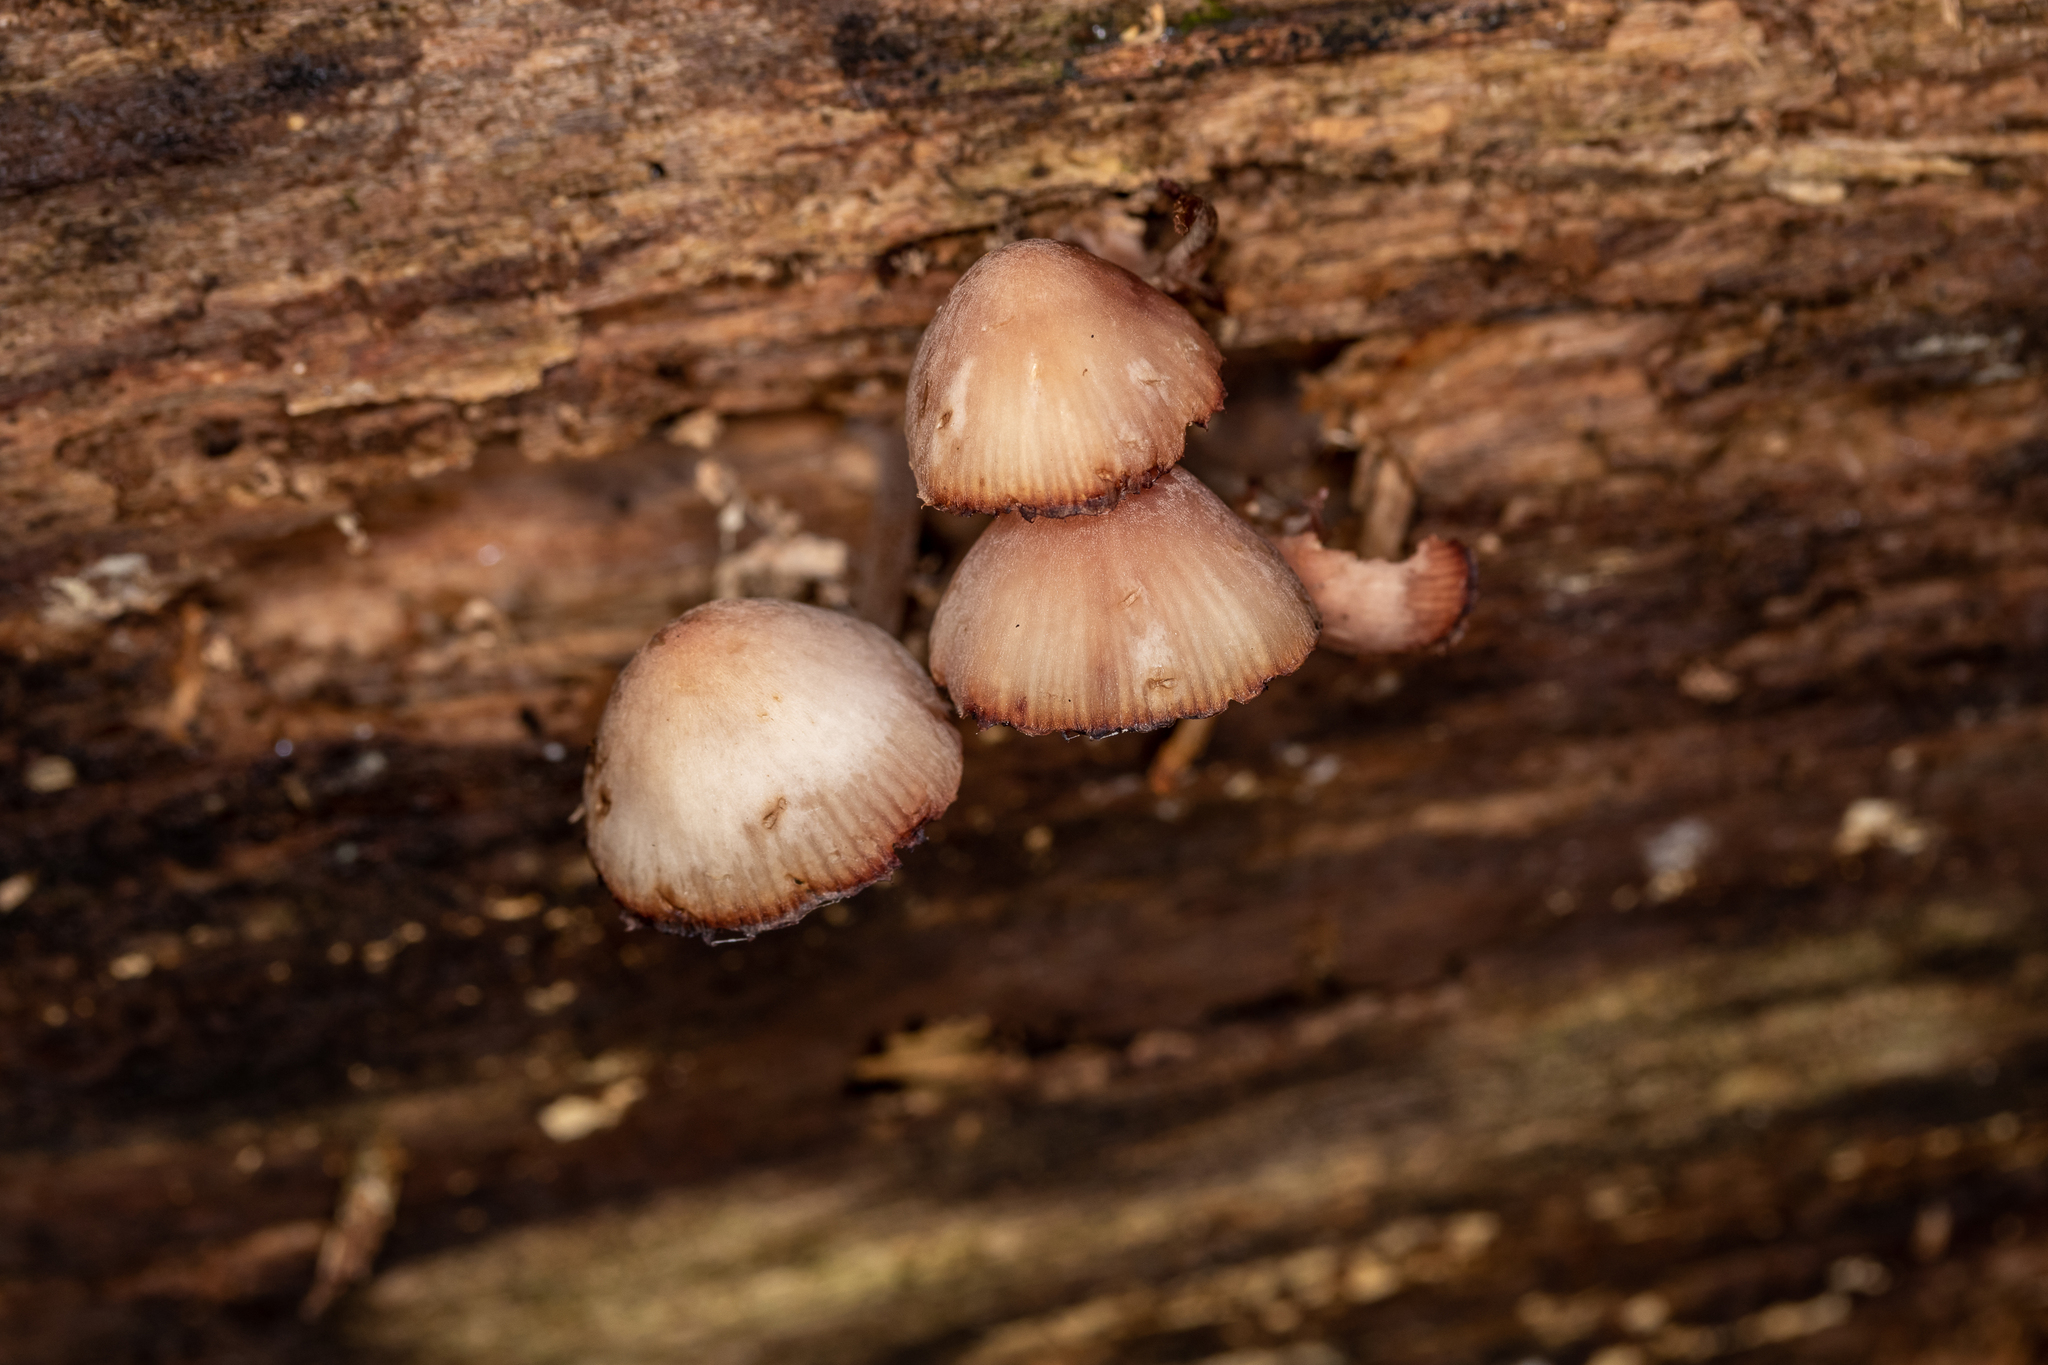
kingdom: Fungi
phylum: Basidiomycota
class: Agaricomycetes
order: Agaricales
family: Mycenaceae
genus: Mycena
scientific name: Mycena haematopus
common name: Burgundydrop bonnet
